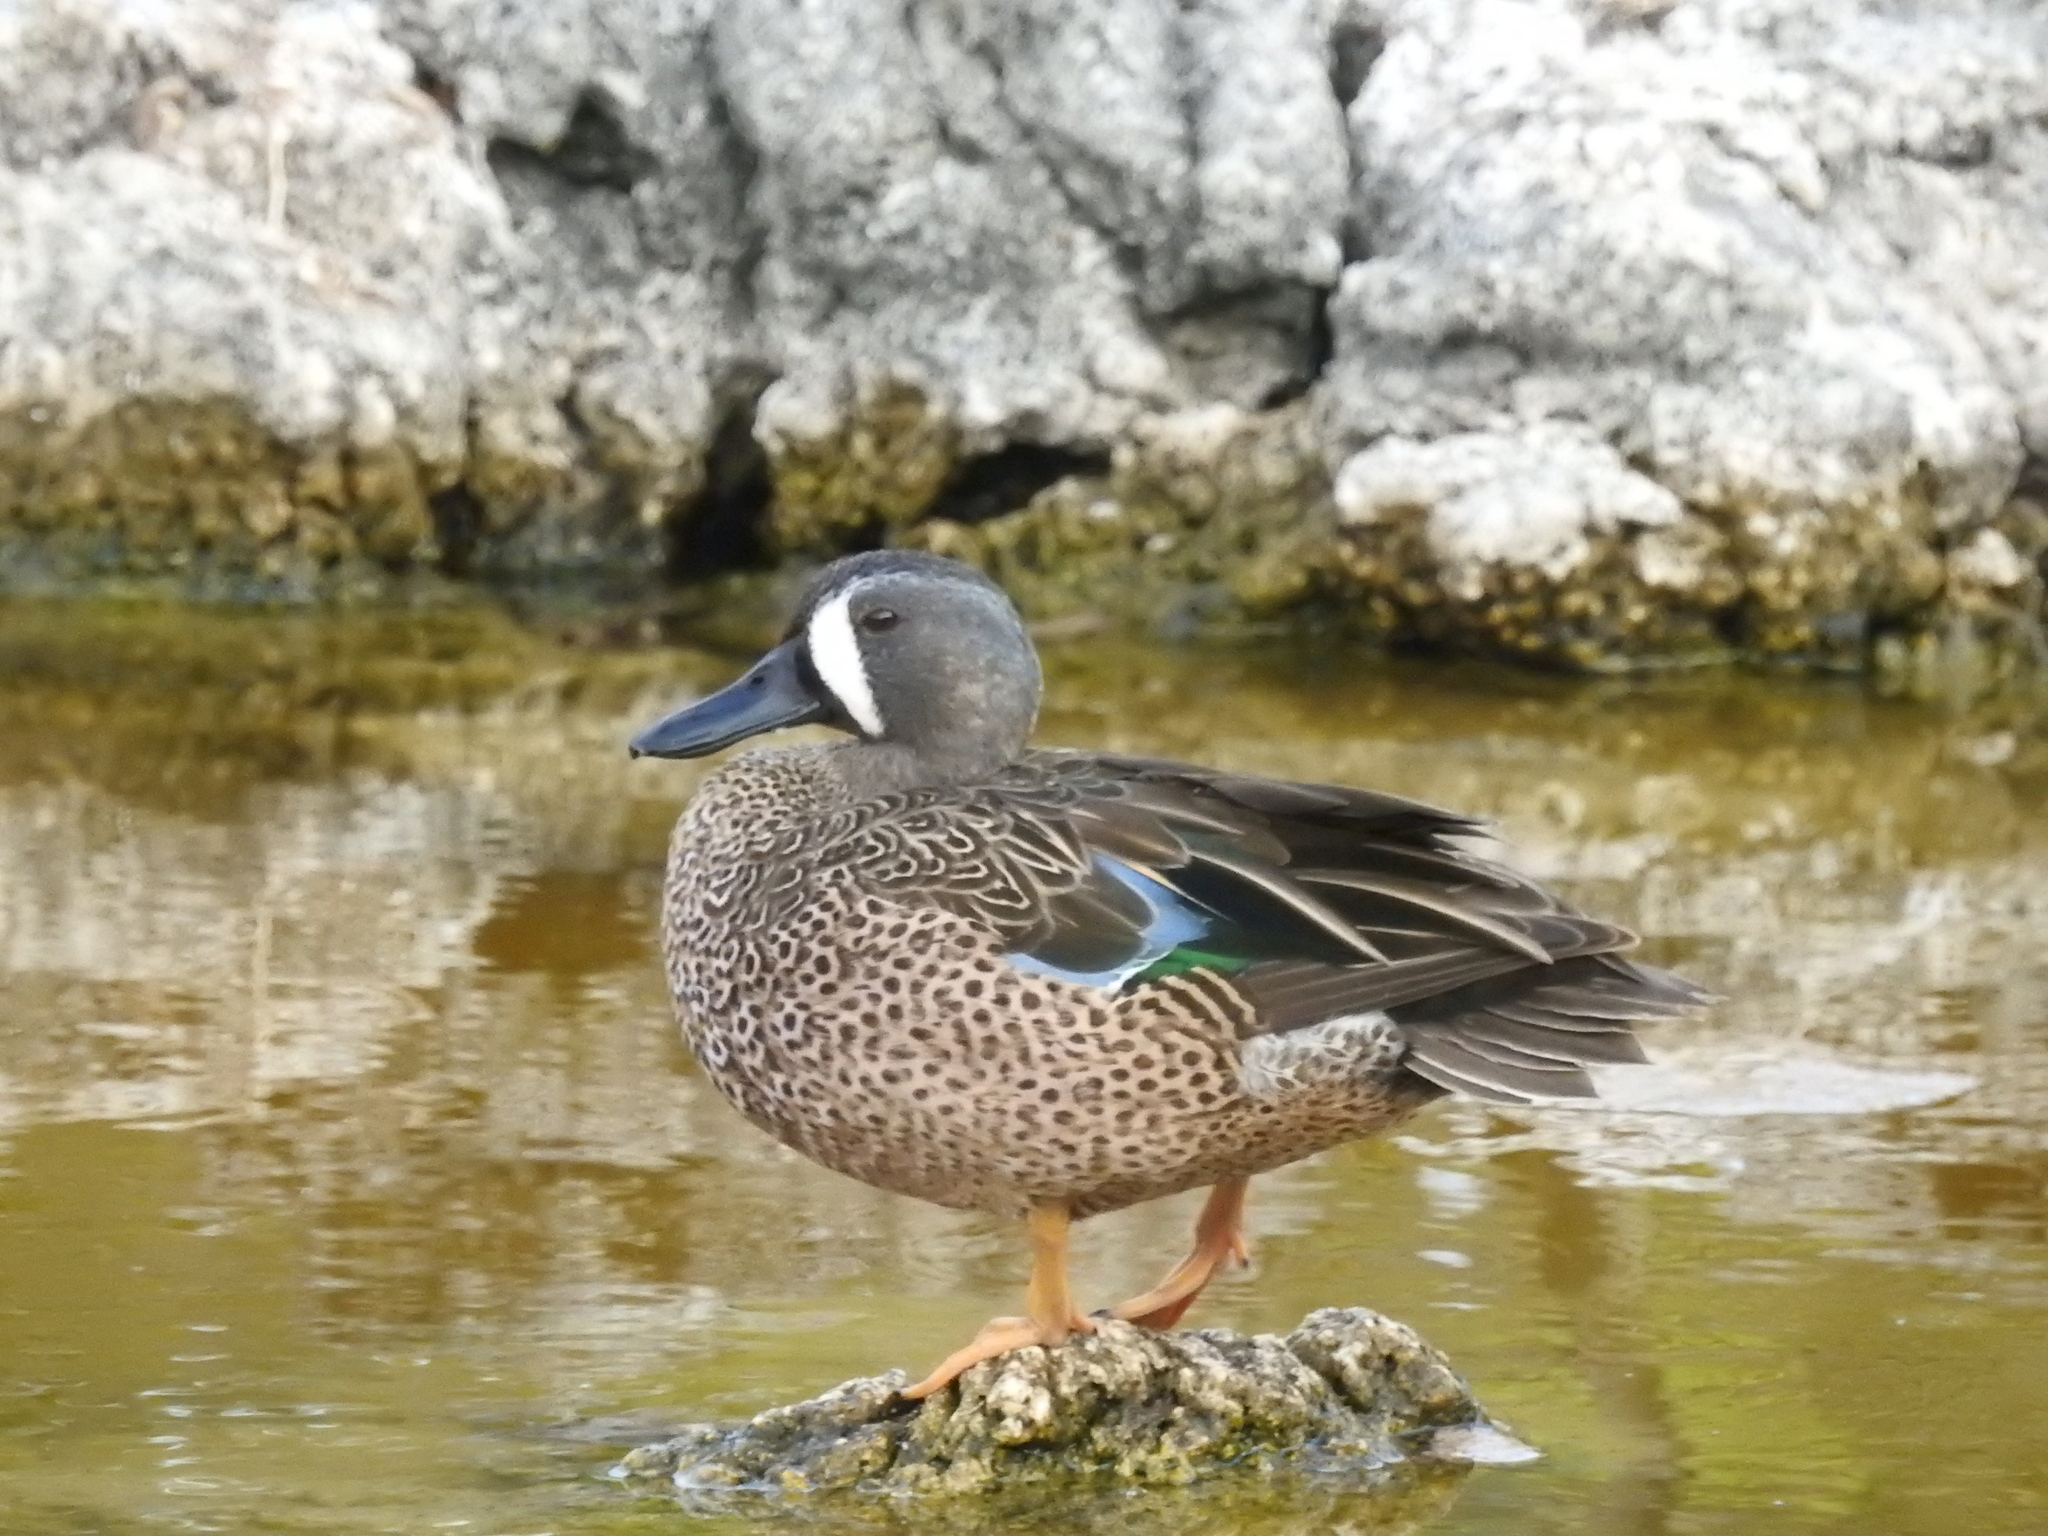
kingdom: Animalia
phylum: Chordata
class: Aves
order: Anseriformes
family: Anatidae
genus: Spatula
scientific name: Spatula discors
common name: Blue-winged teal
